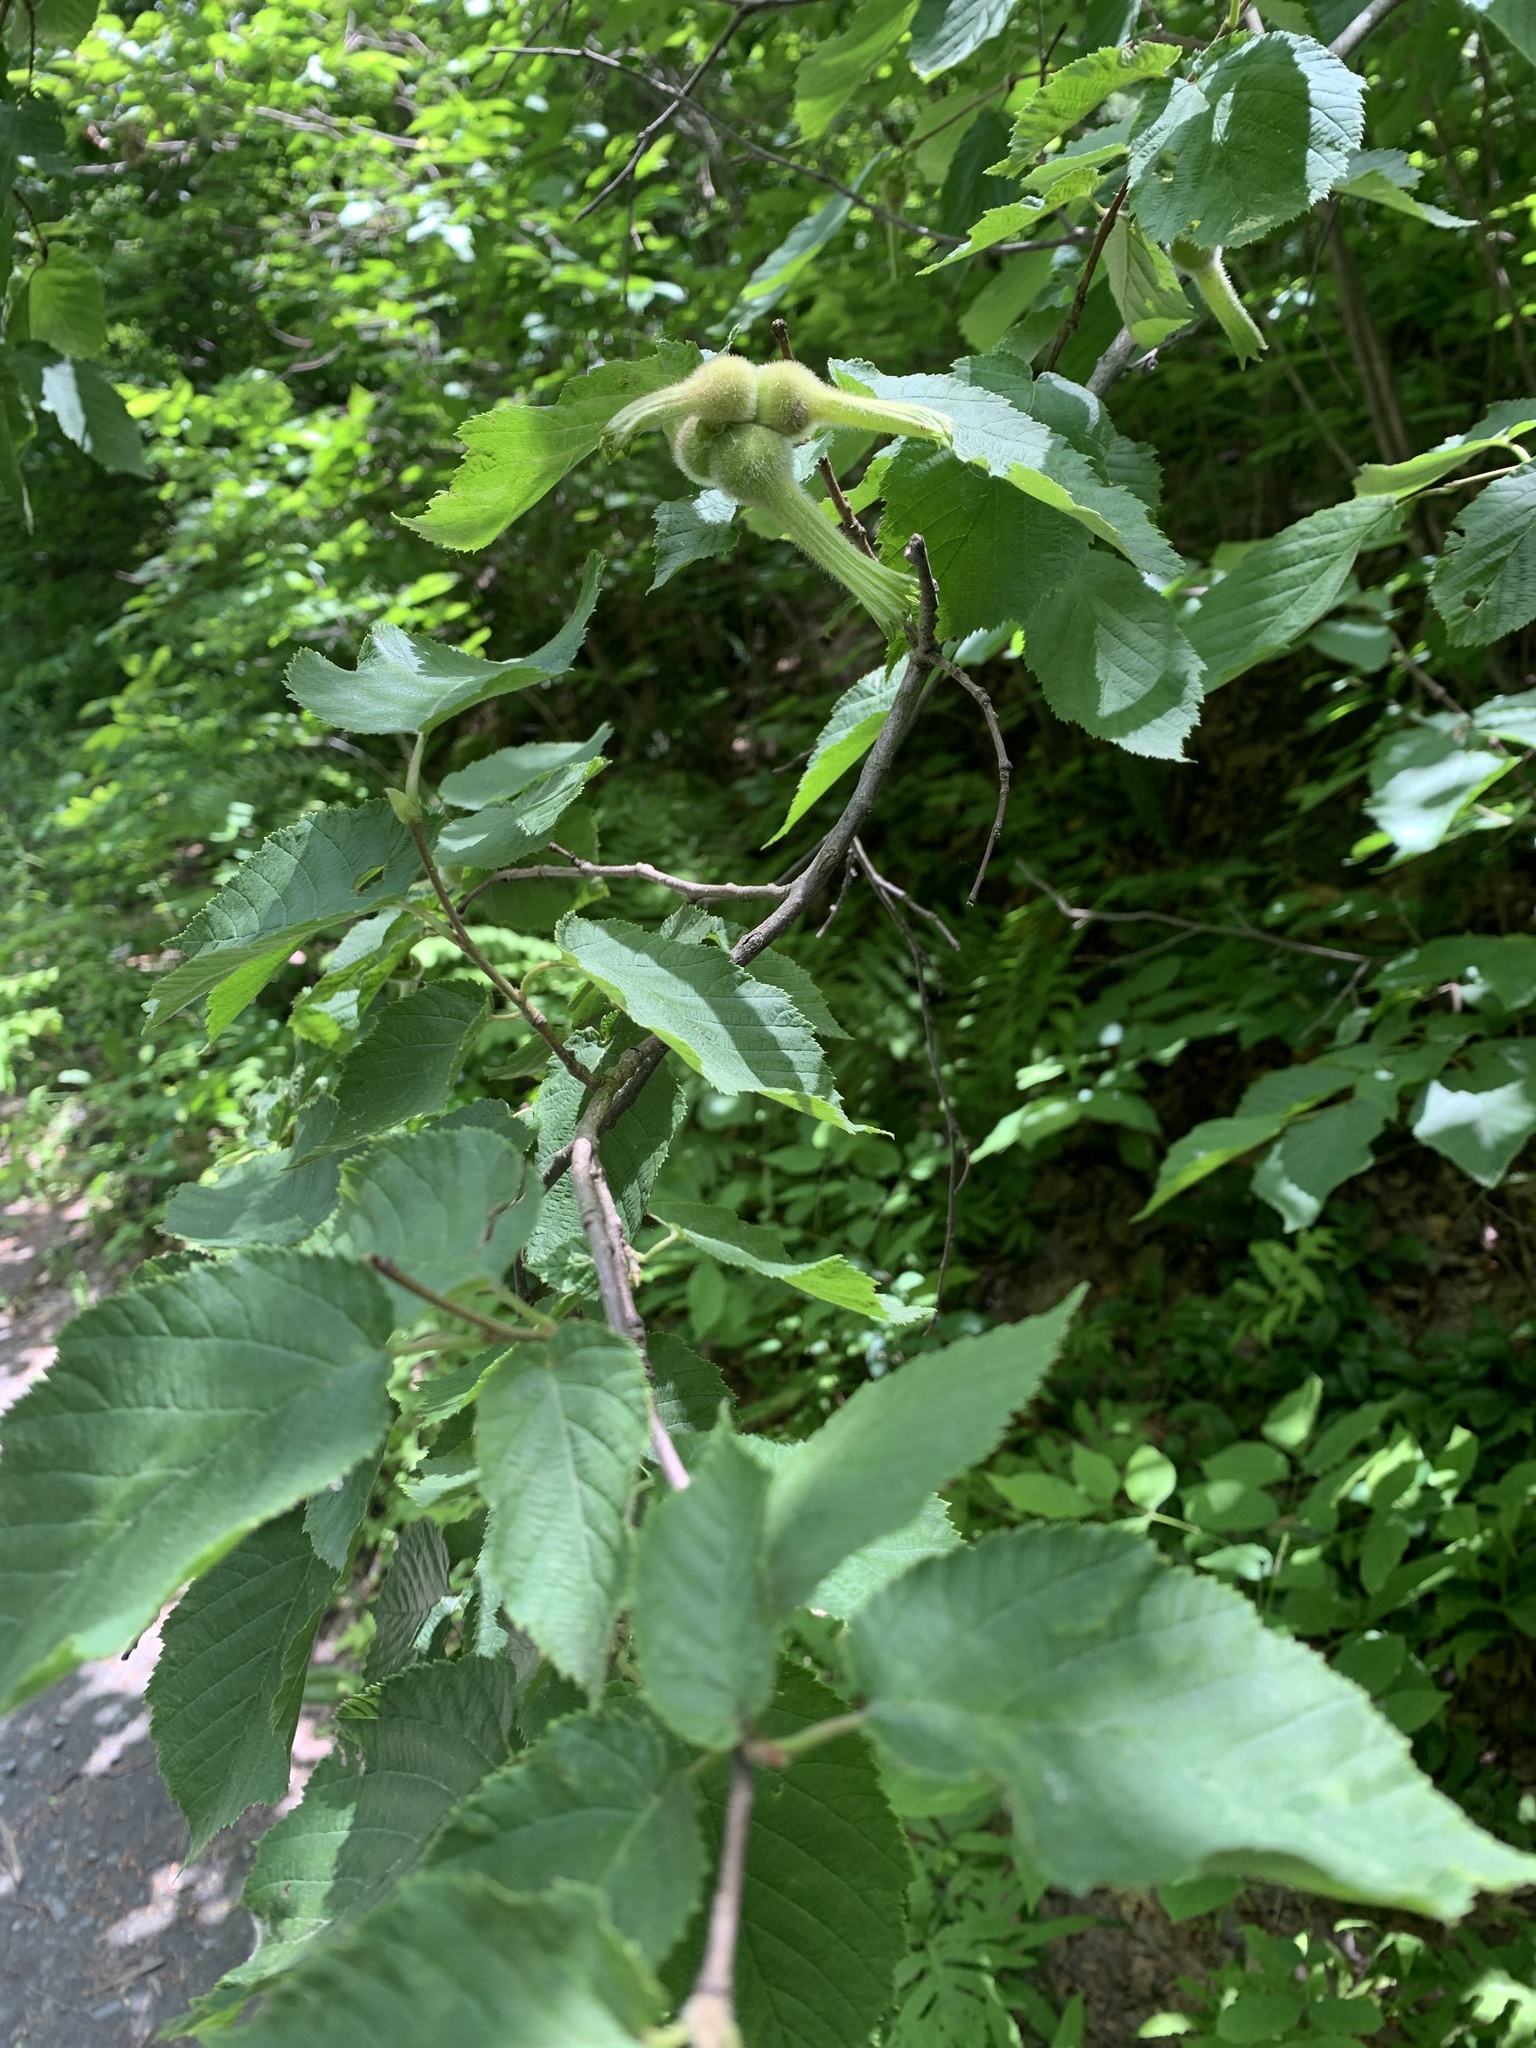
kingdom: Plantae
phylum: Tracheophyta
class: Magnoliopsida
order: Fagales
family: Betulaceae
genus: Corylus
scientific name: Corylus cornuta
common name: Beaked hazel
